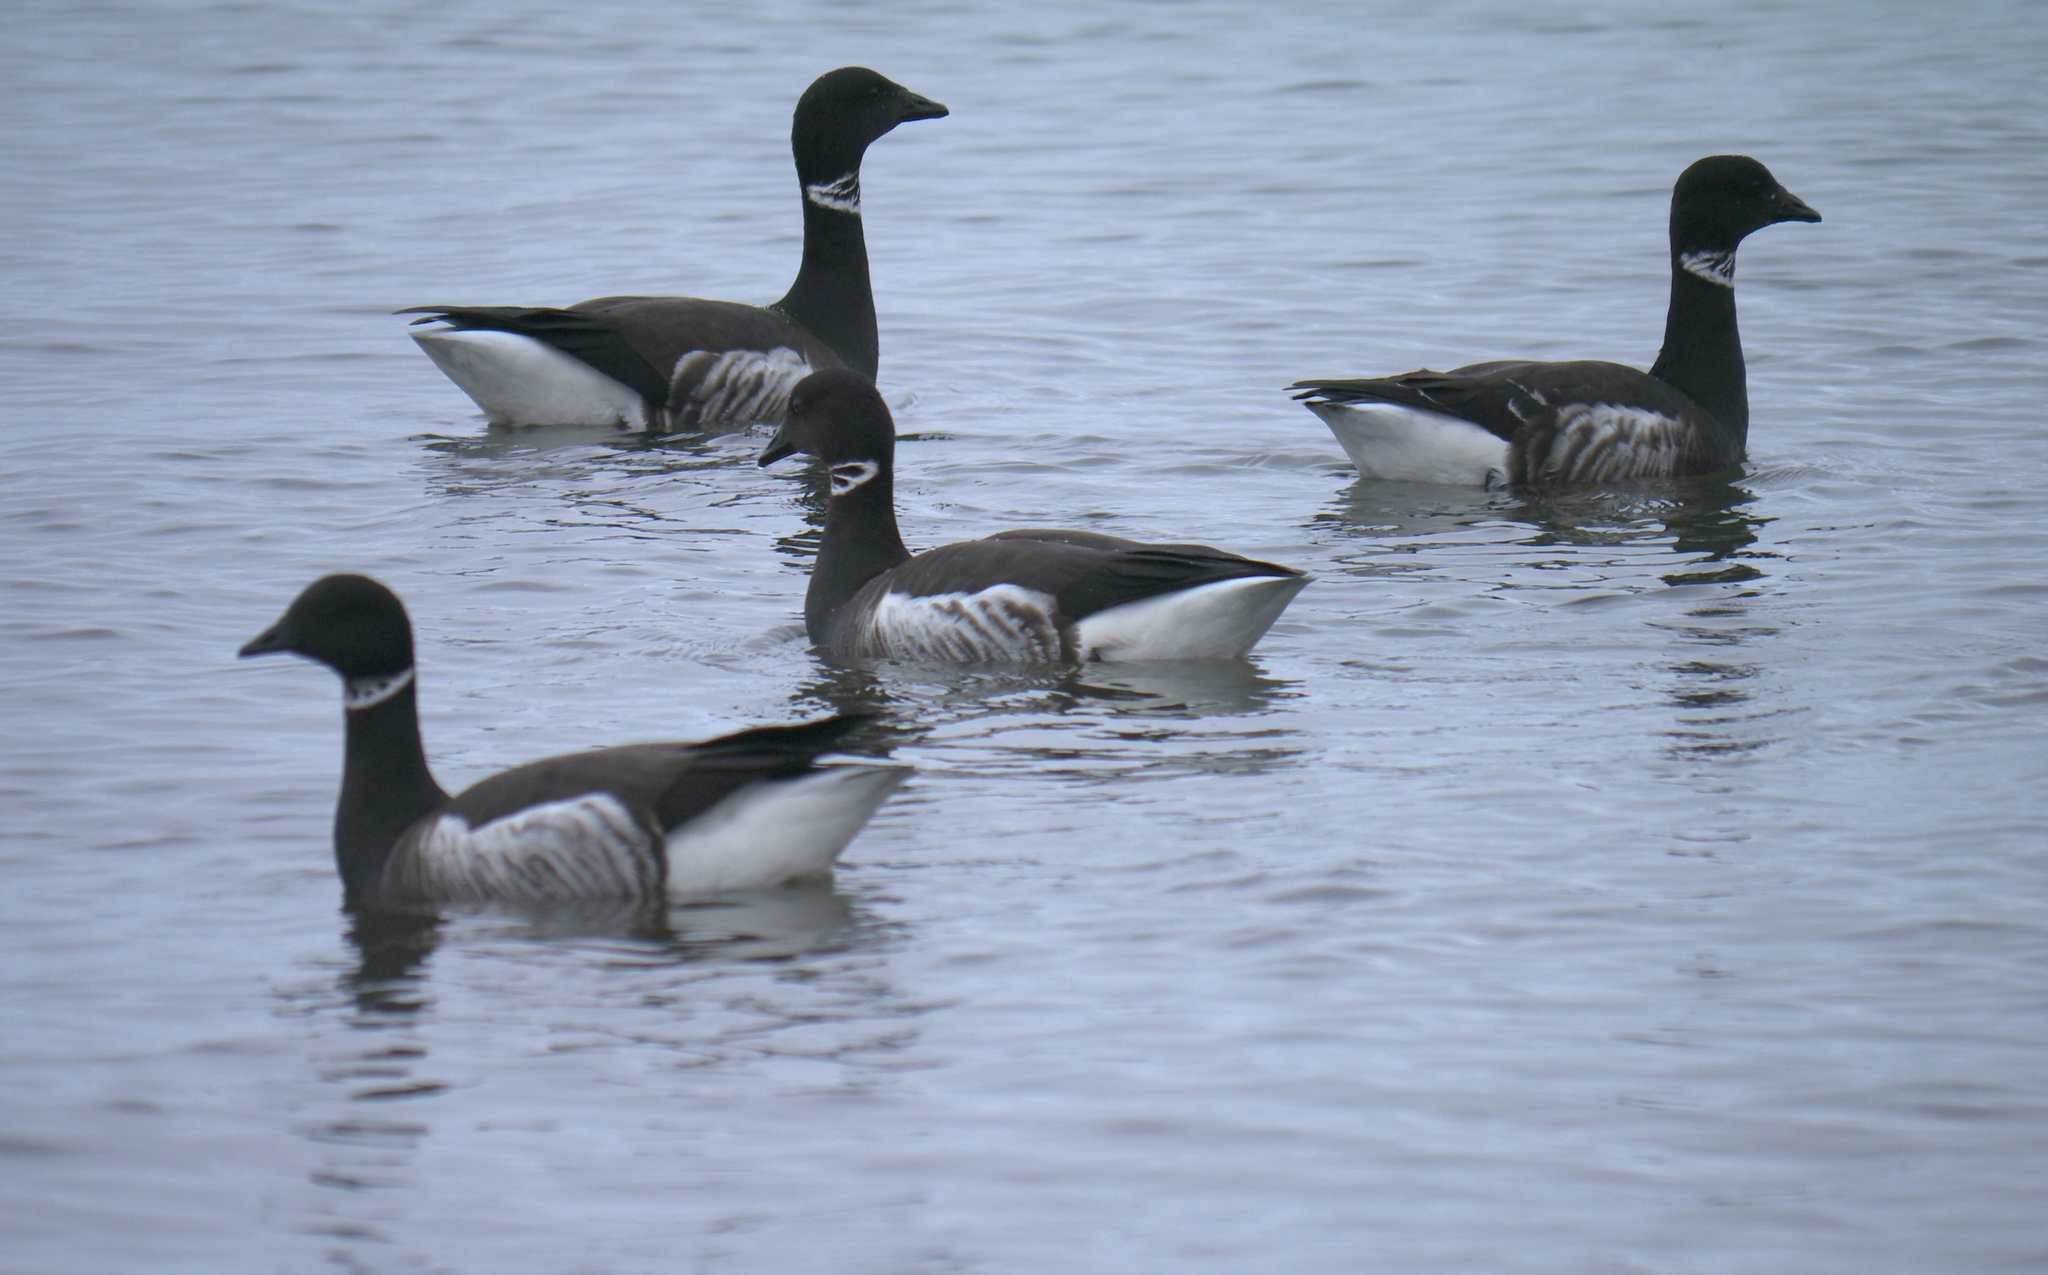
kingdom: Animalia
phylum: Chordata
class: Aves
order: Anseriformes
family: Anatidae
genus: Branta
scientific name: Branta bernicla
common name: Brant goose
